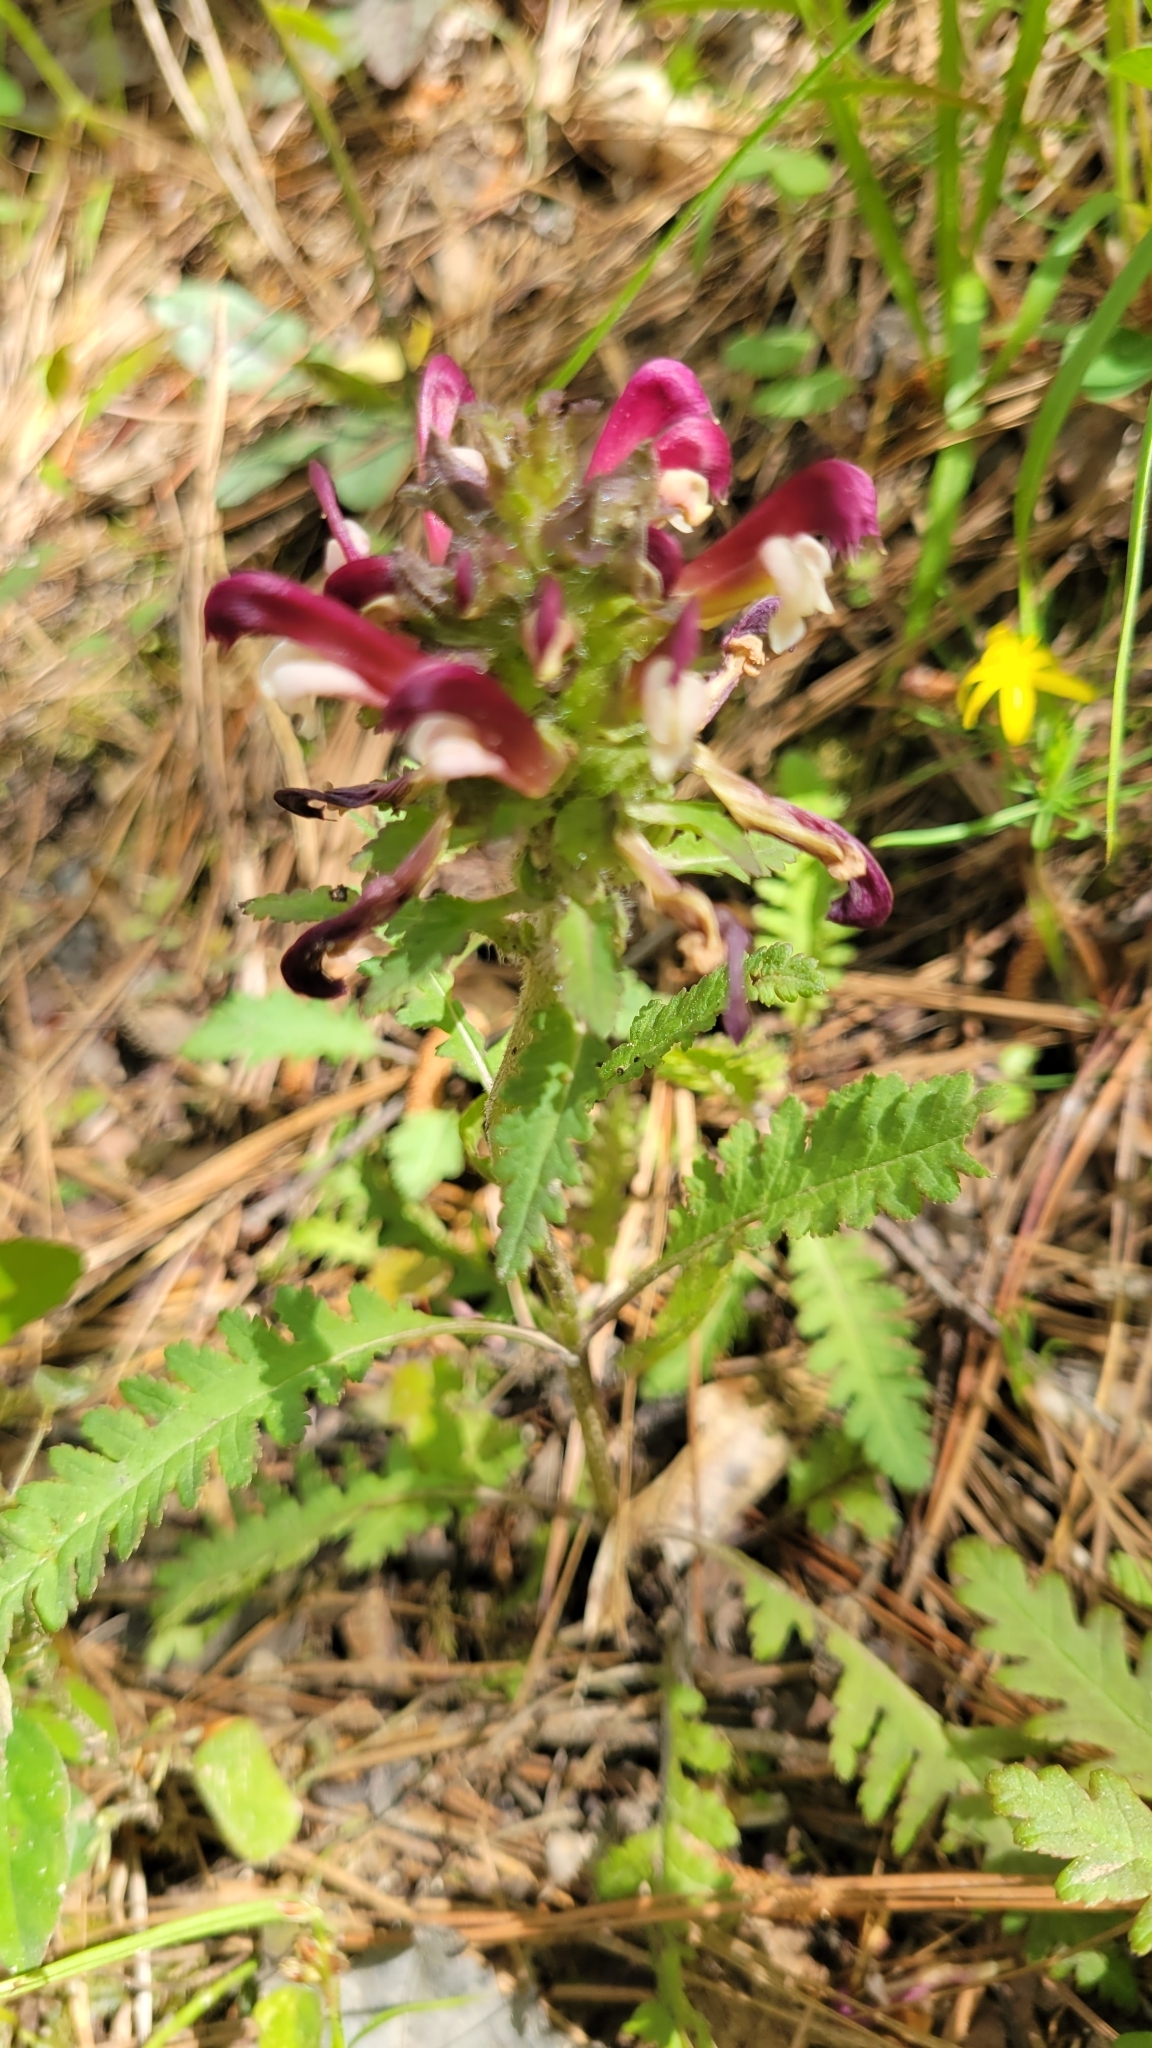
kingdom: Plantae
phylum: Tracheophyta
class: Magnoliopsida
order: Lamiales
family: Orobanchaceae
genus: Pedicularis
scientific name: Pedicularis canadensis
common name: Early lousewort
